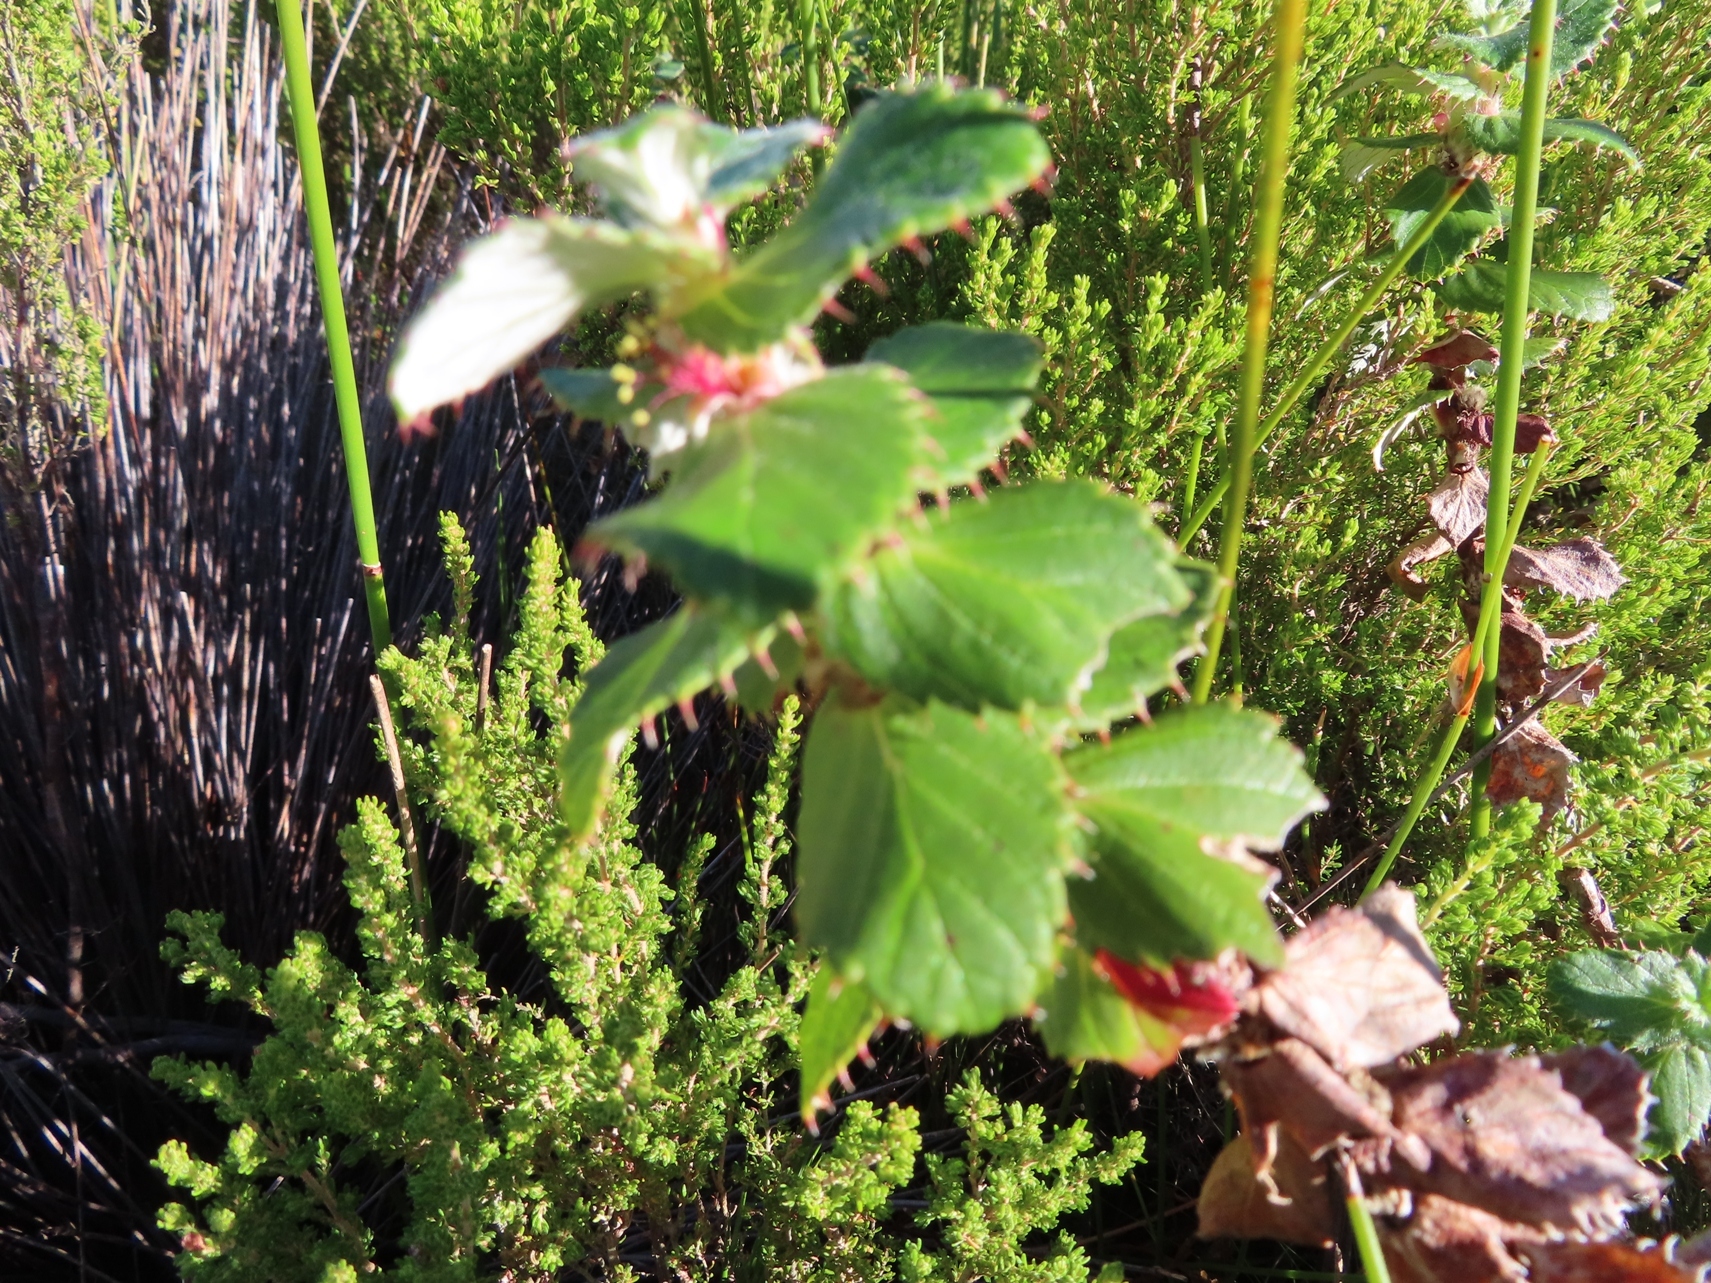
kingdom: Plantae
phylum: Tracheophyta
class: Magnoliopsida
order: Rosales
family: Rosaceae
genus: Cliffortia
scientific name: Cliffortia hirsuta
